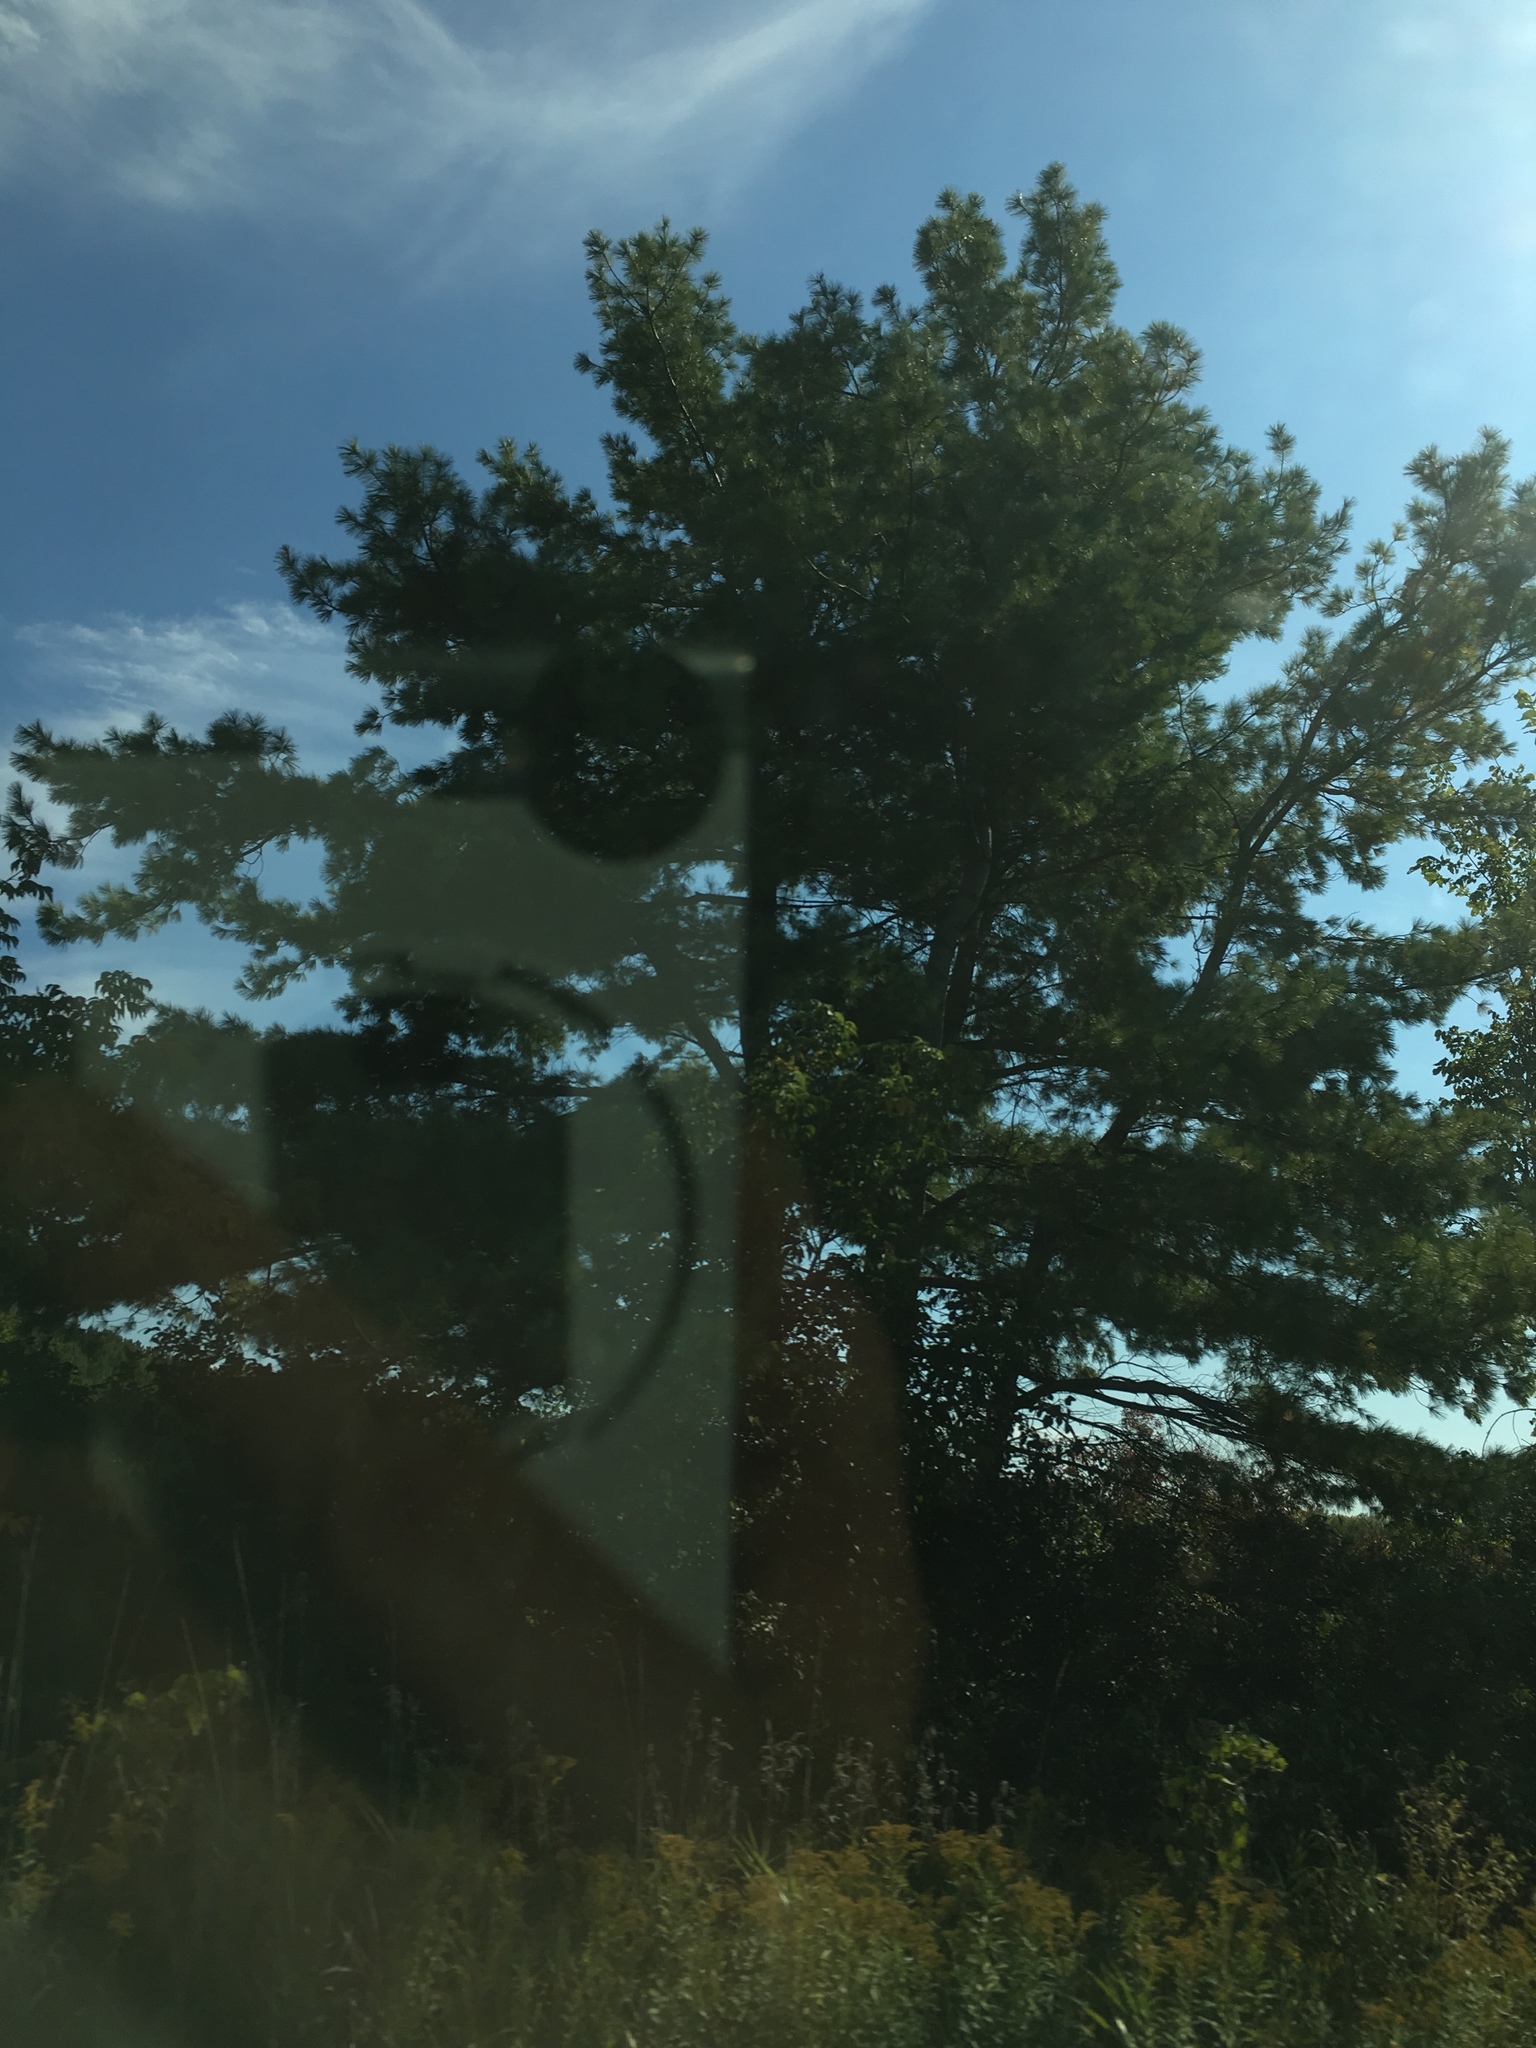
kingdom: Plantae
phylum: Tracheophyta
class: Pinopsida
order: Pinales
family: Pinaceae
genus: Pinus
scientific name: Pinus strobus
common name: Weymouth pine
